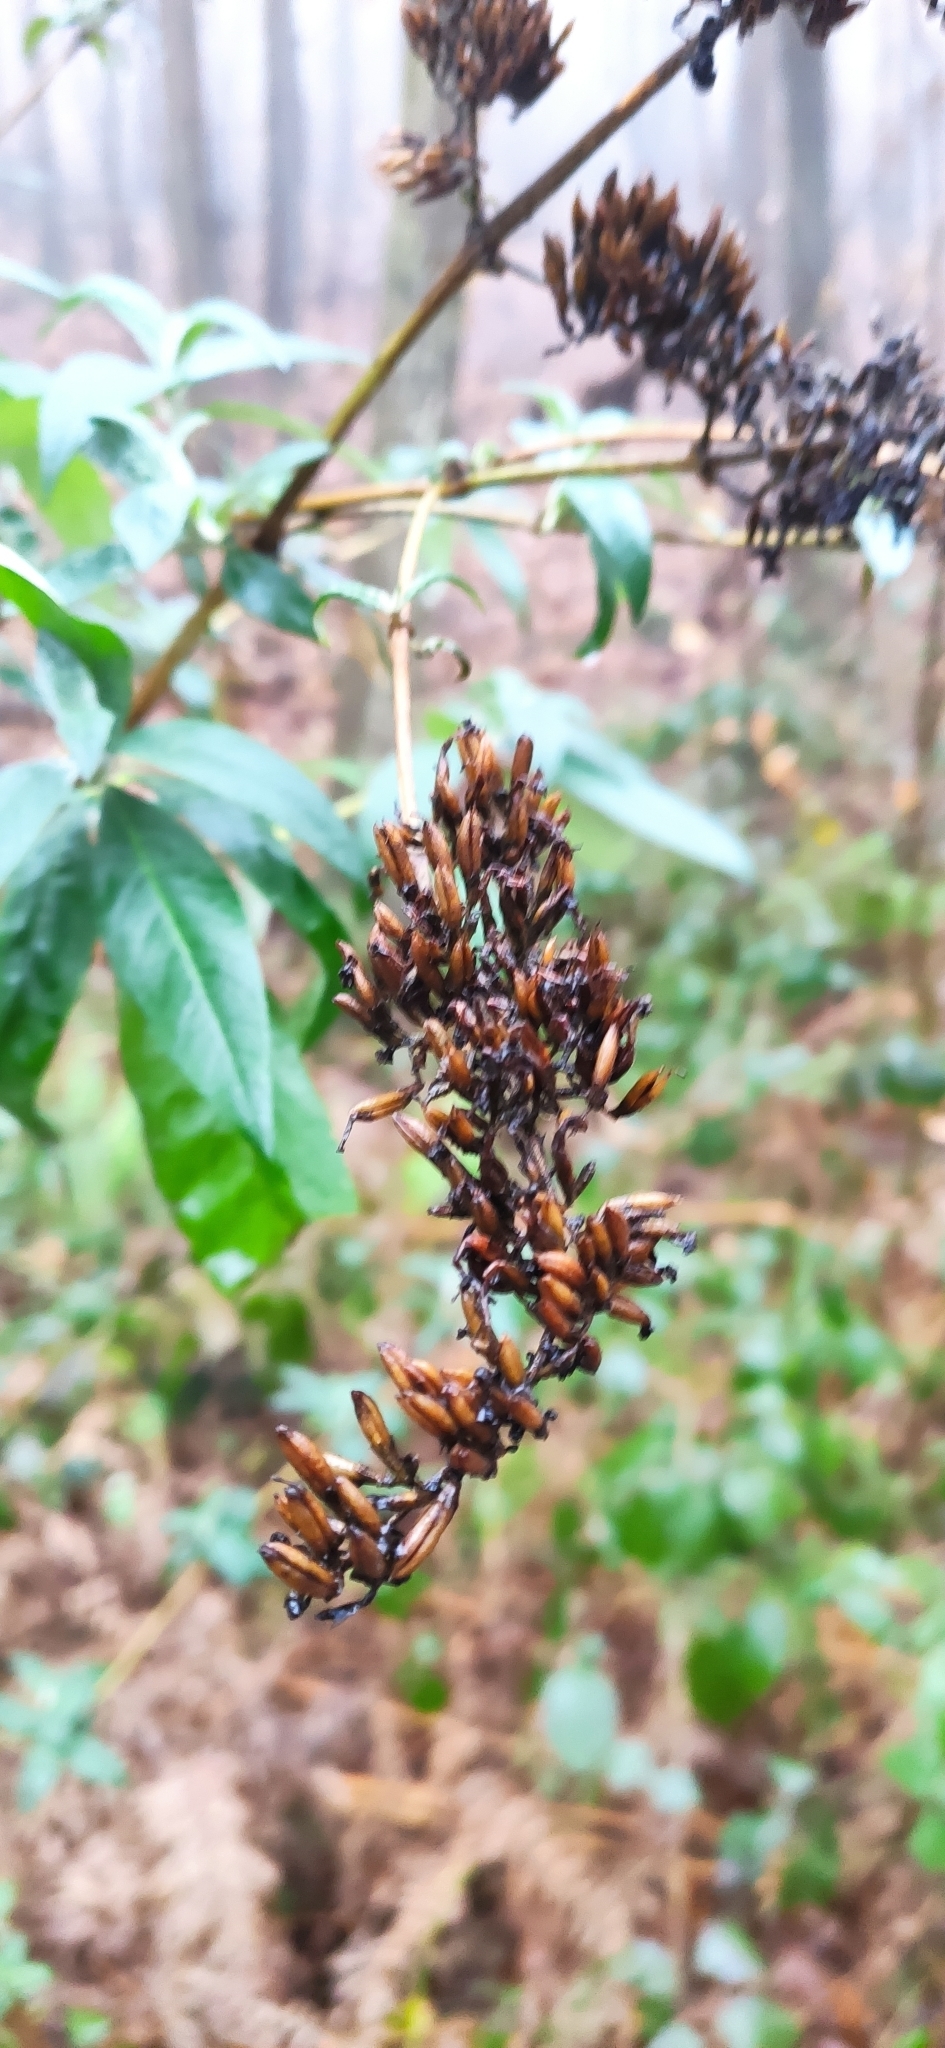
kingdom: Plantae
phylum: Tracheophyta
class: Magnoliopsida
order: Lamiales
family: Scrophulariaceae
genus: Buddleja
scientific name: Buddleja davidii
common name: Butterfly-bush
